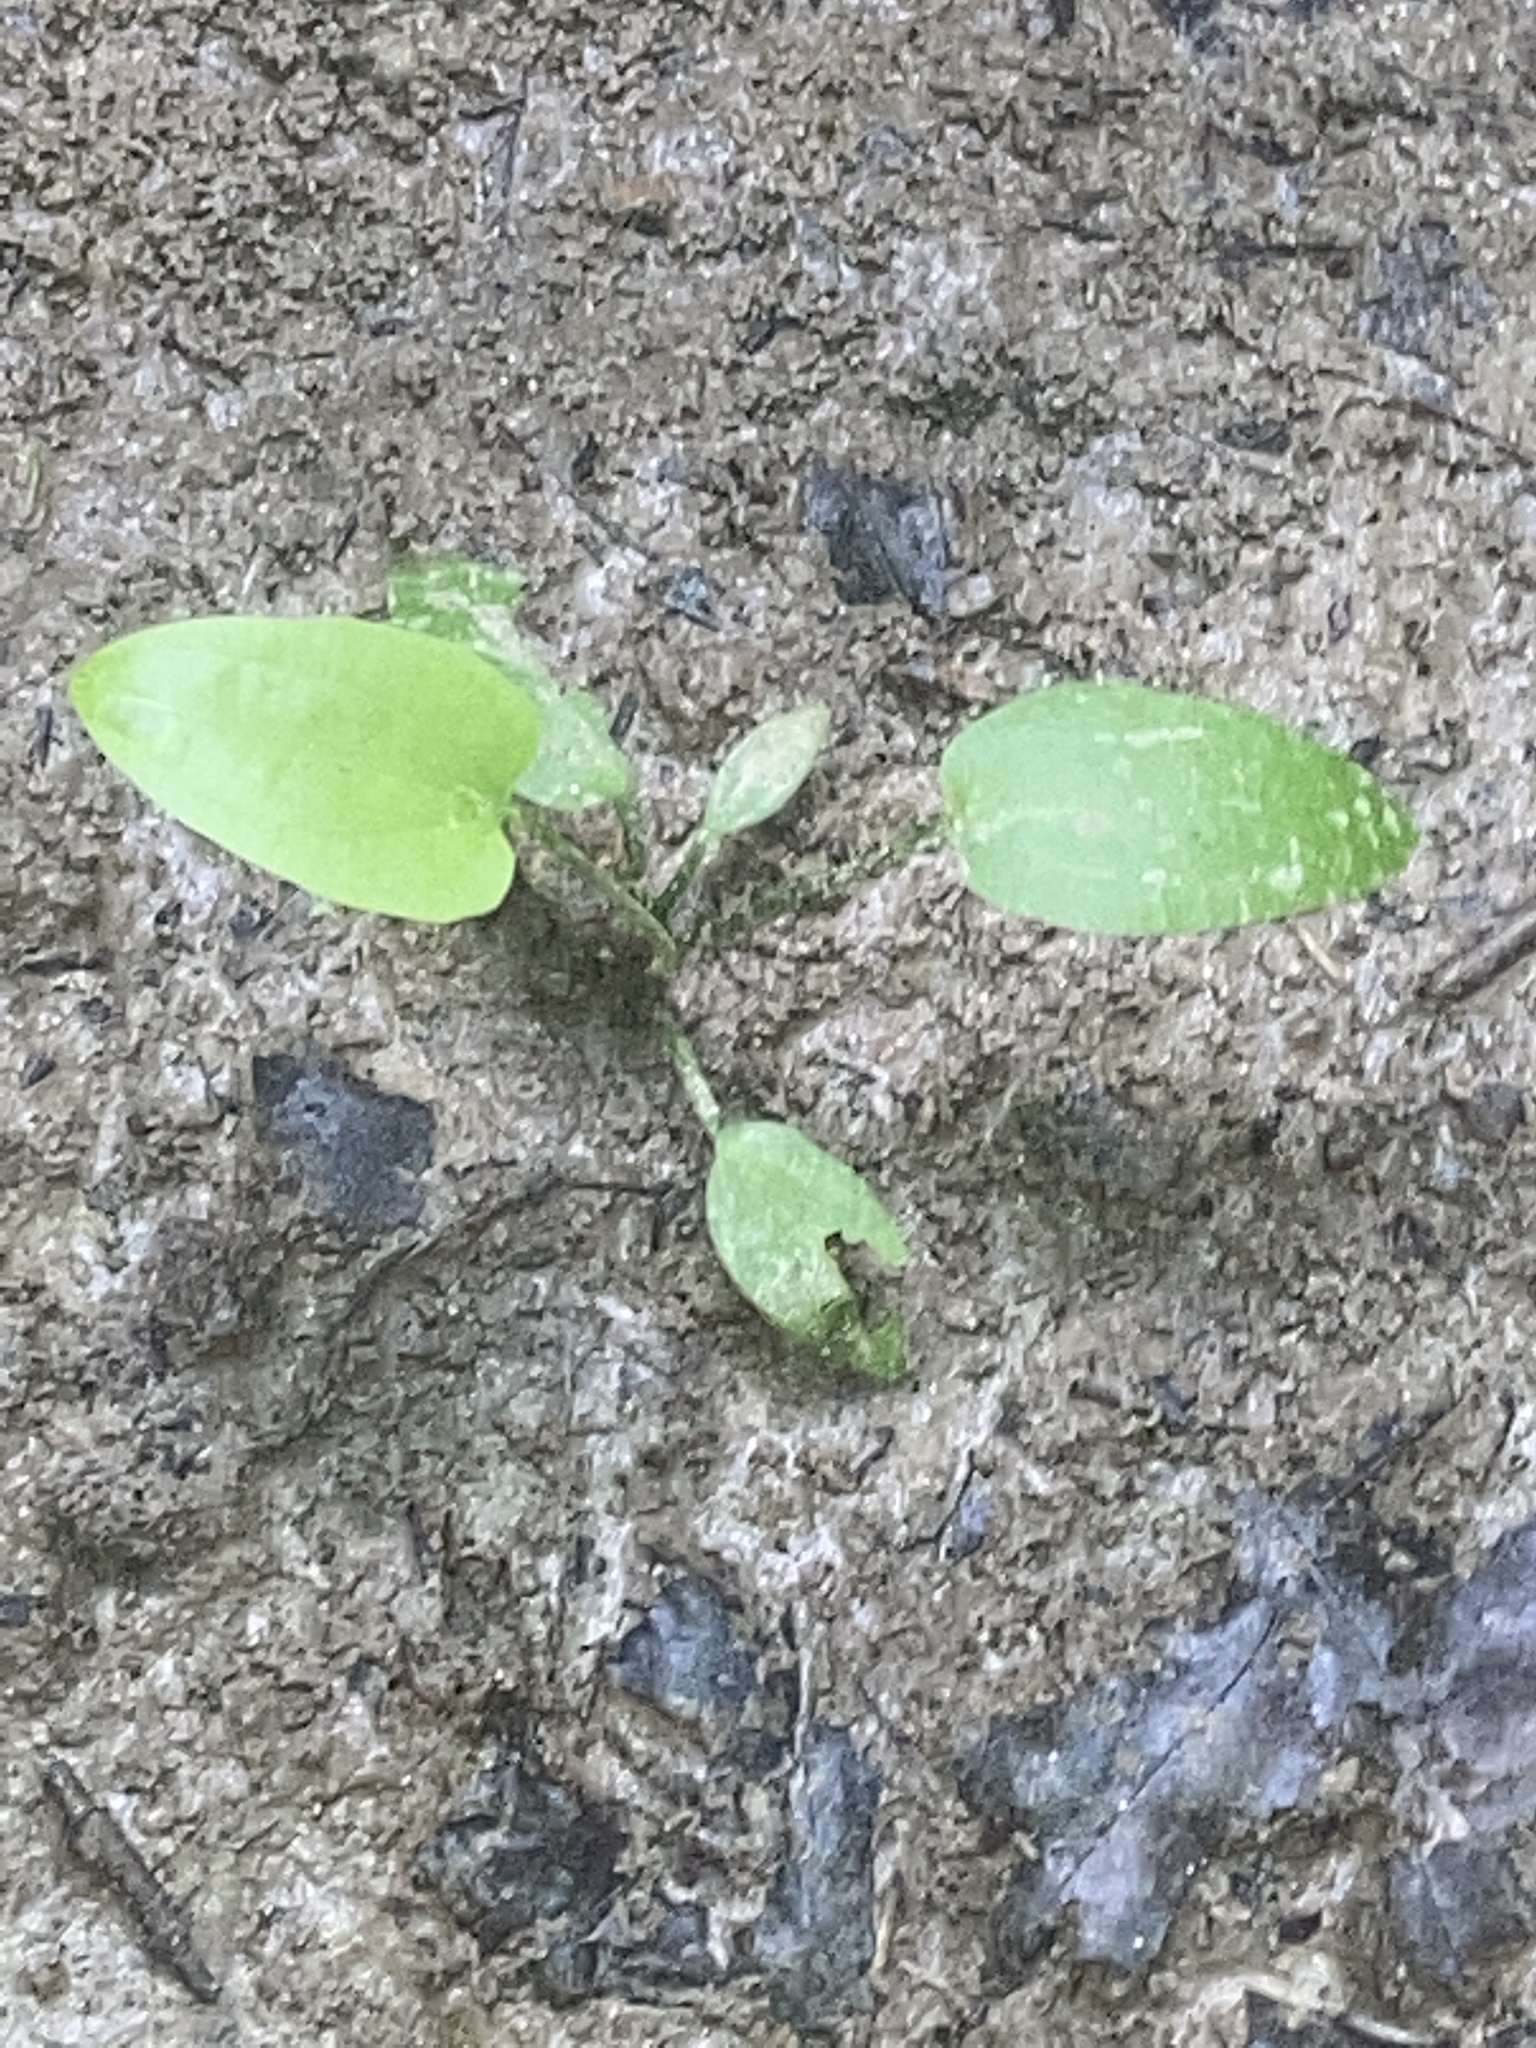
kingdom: Plantae
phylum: Tracheophyta
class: Liliopsida
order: Alismatales
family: Alismataceae
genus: Aquarius
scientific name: Aquarius cordifolius
